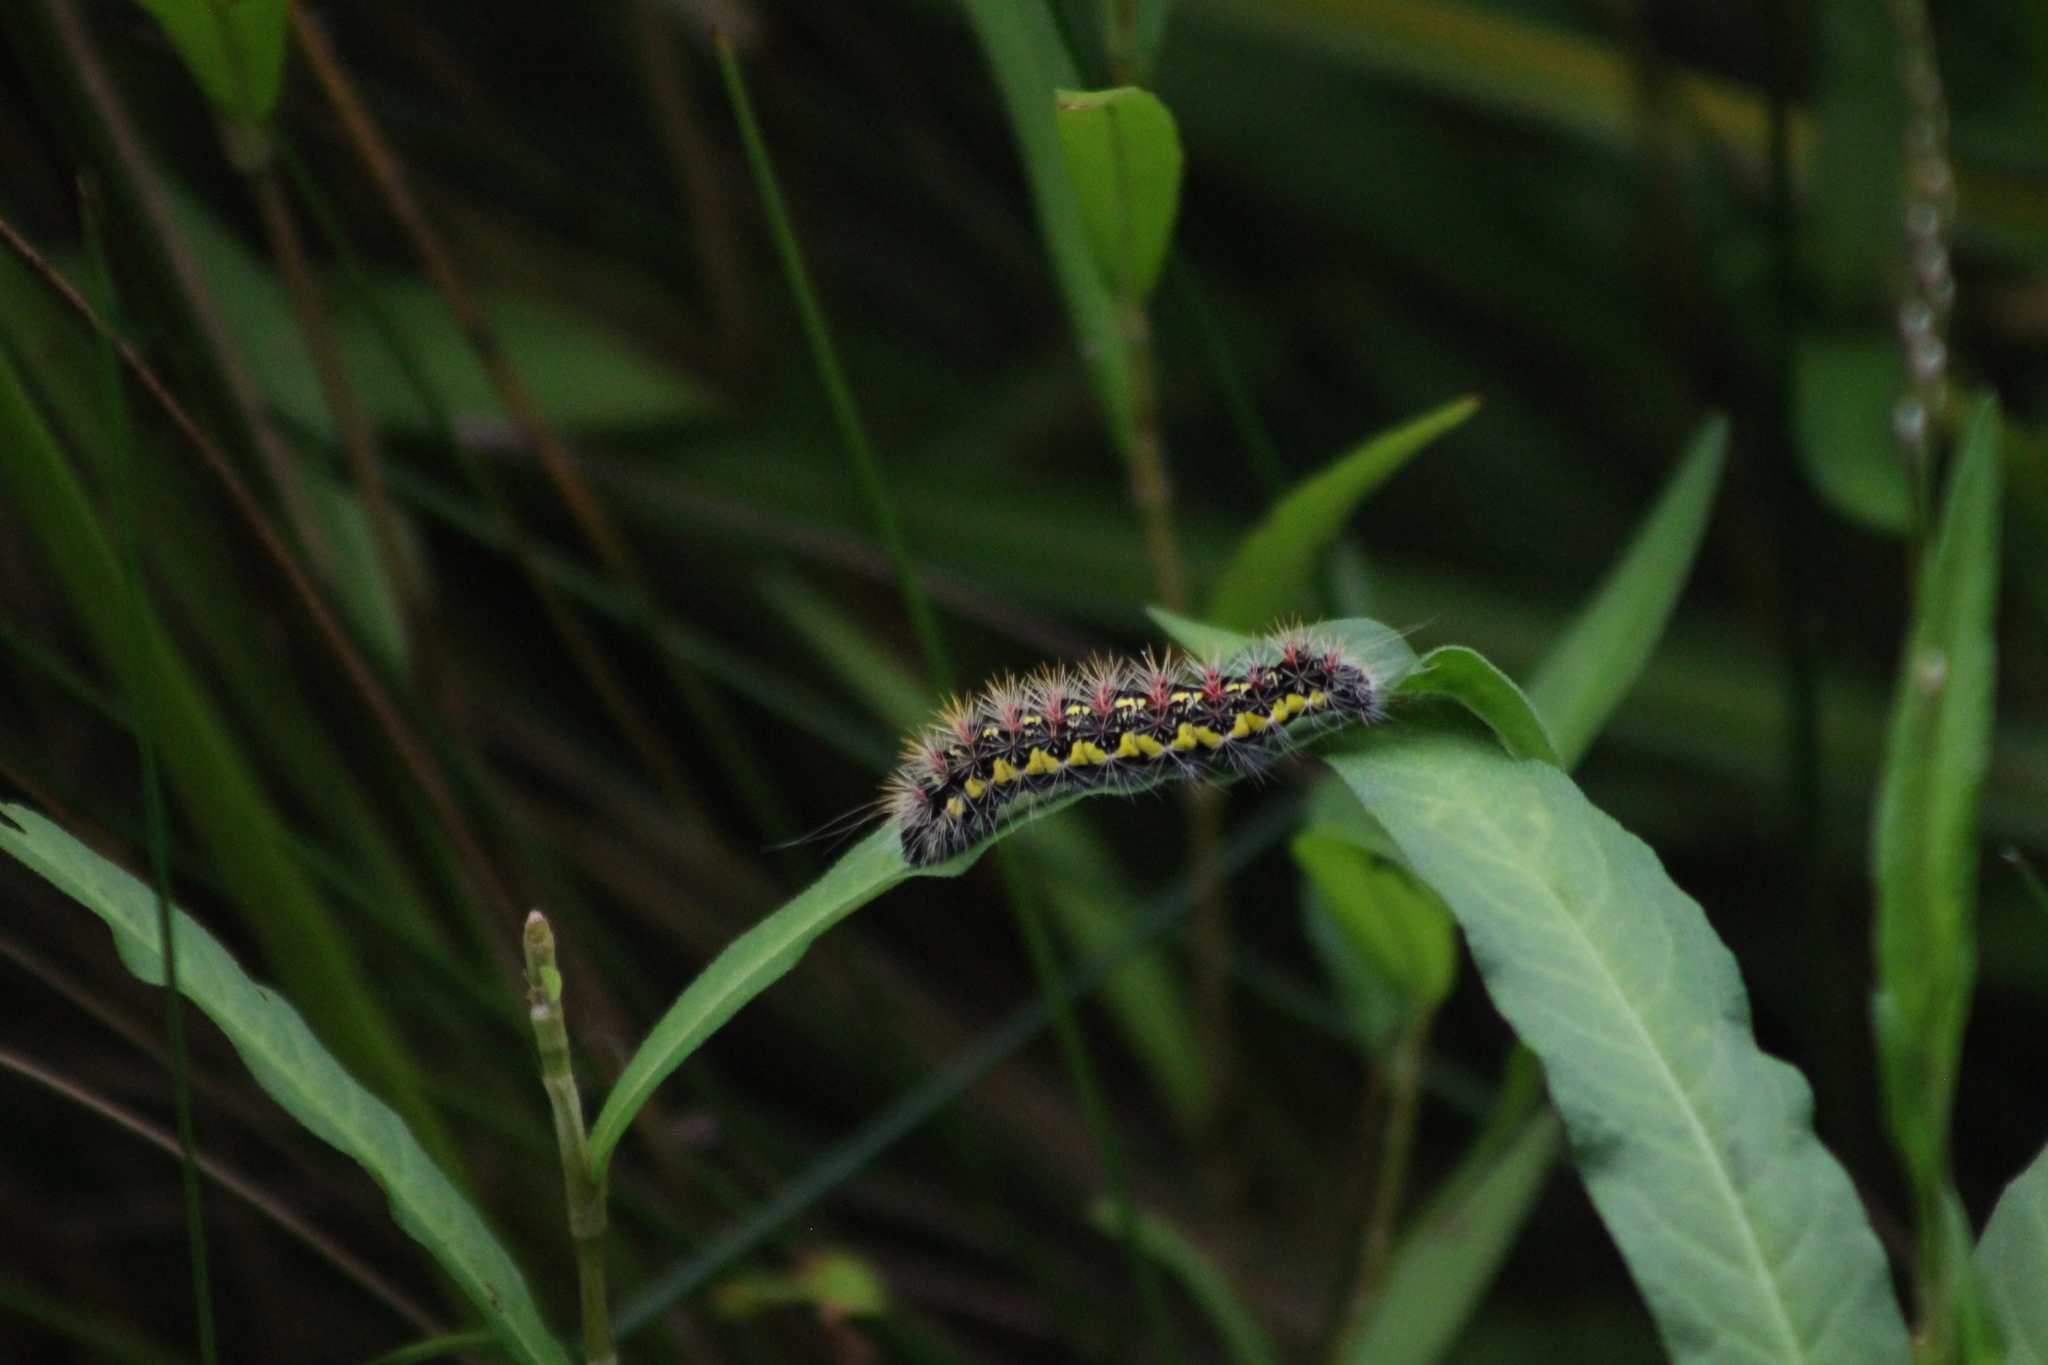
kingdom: Animalia
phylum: Arthropoda
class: Insecta
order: Lepidoptera
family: Noctuidae
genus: Acronicta
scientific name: Acronicta oblinita
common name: Smeared dagger
